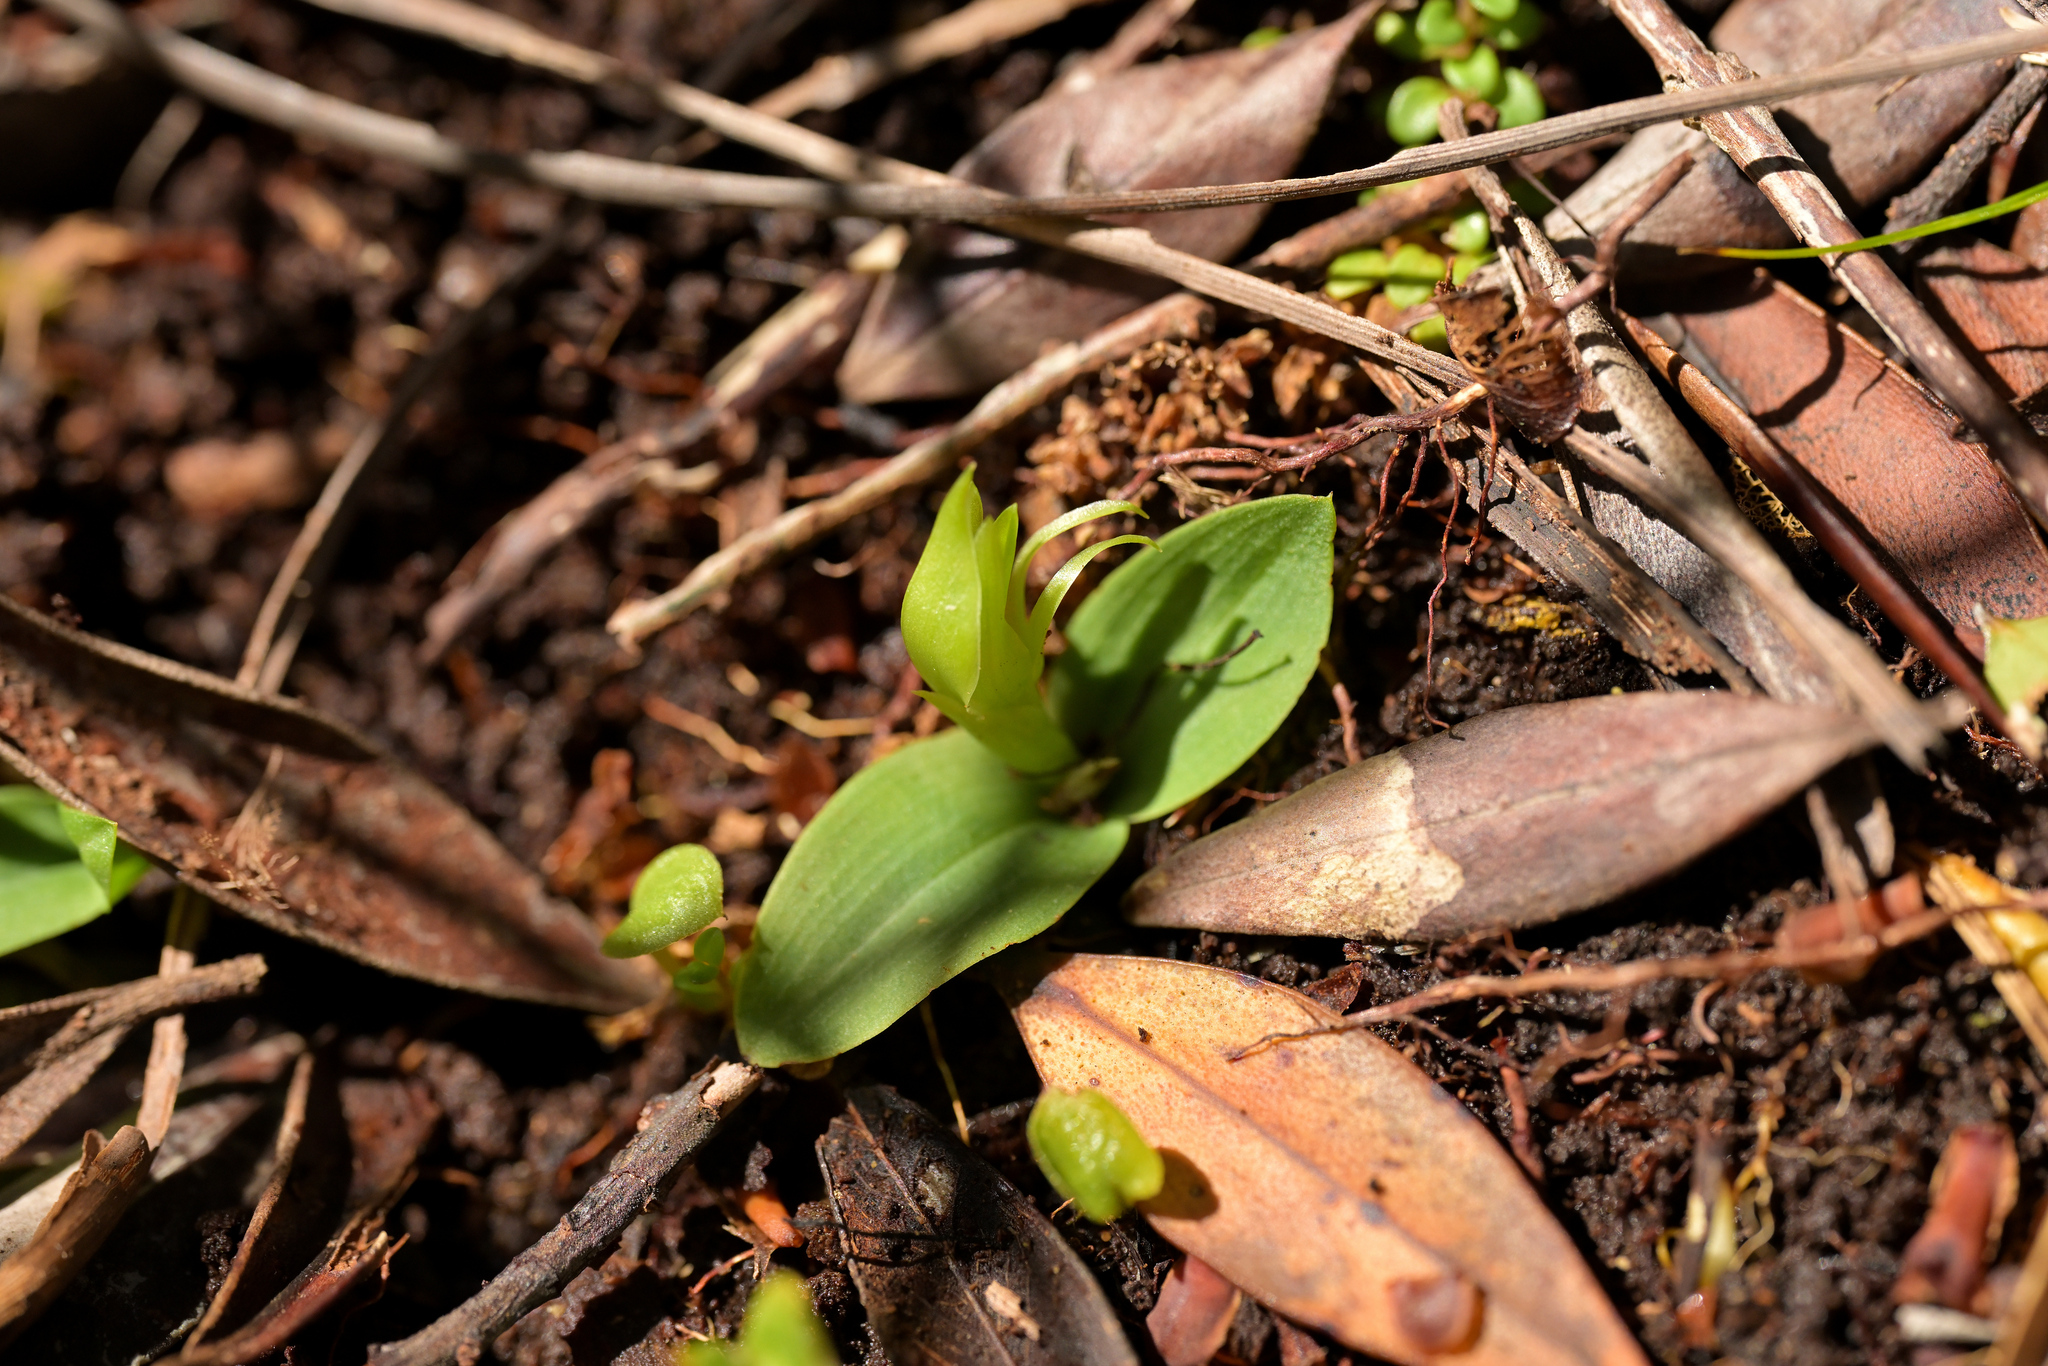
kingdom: Plantae
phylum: Tracheophyta
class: Liliopsida
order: Asparagales
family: Orchidaceae
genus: Chiloglottis
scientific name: Chiloglottis cornuta
